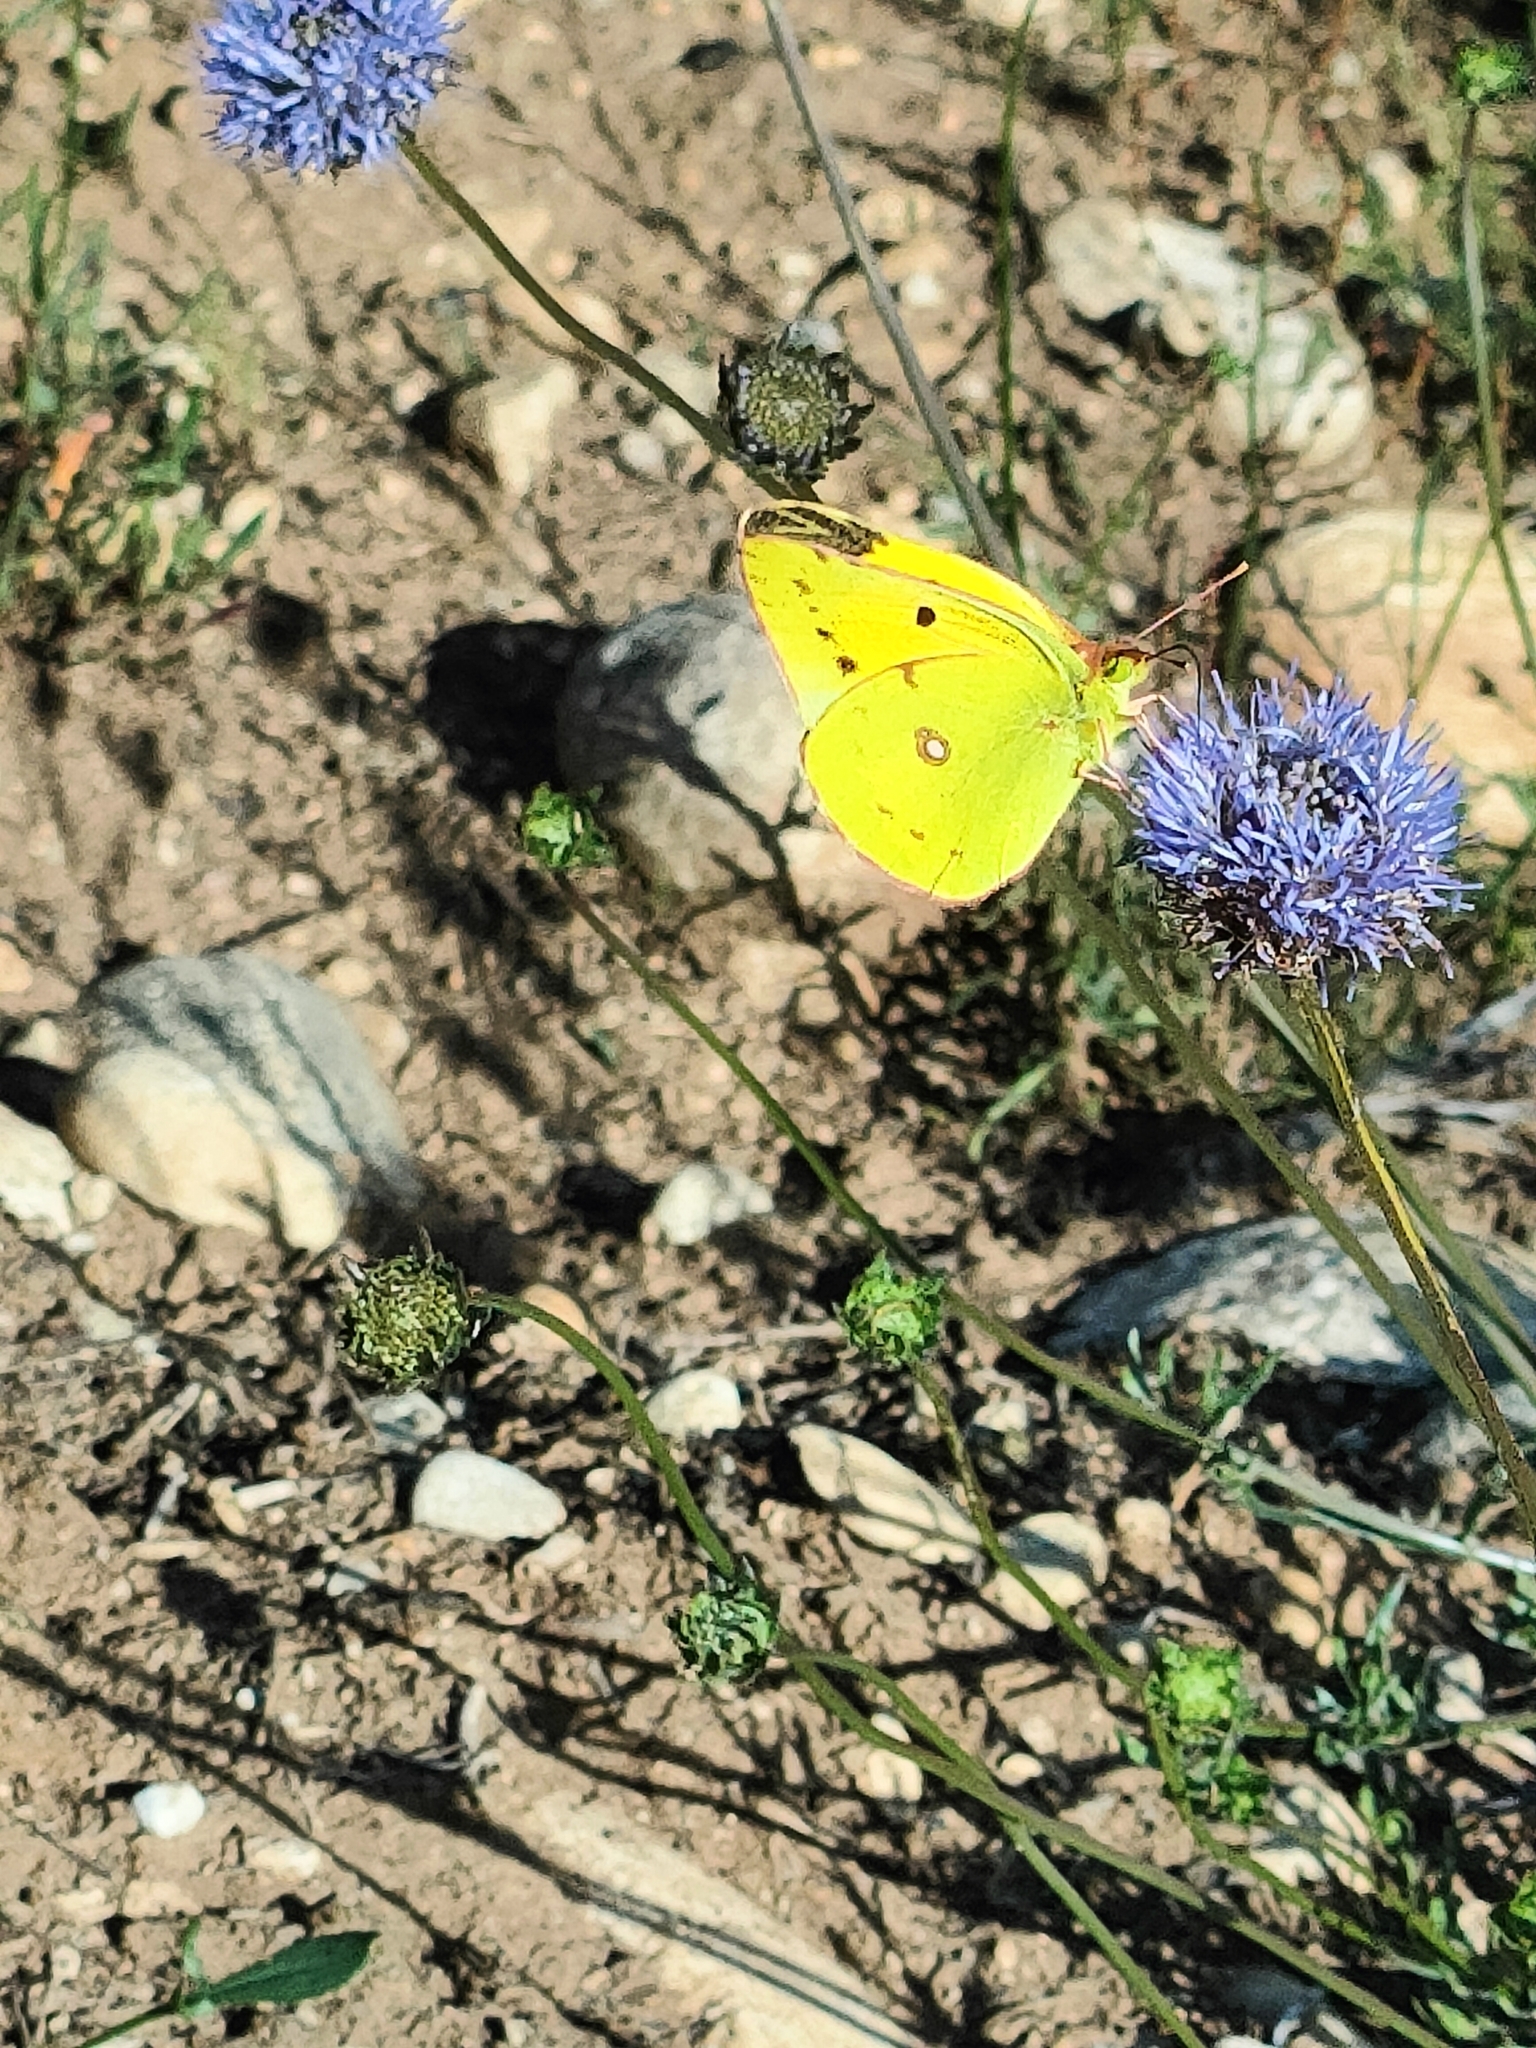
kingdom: Animalia
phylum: Arthropoda
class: Insecta
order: Lepidoptera
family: Pieridae
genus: Colias
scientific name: Colias croceus
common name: Clouded yellow
